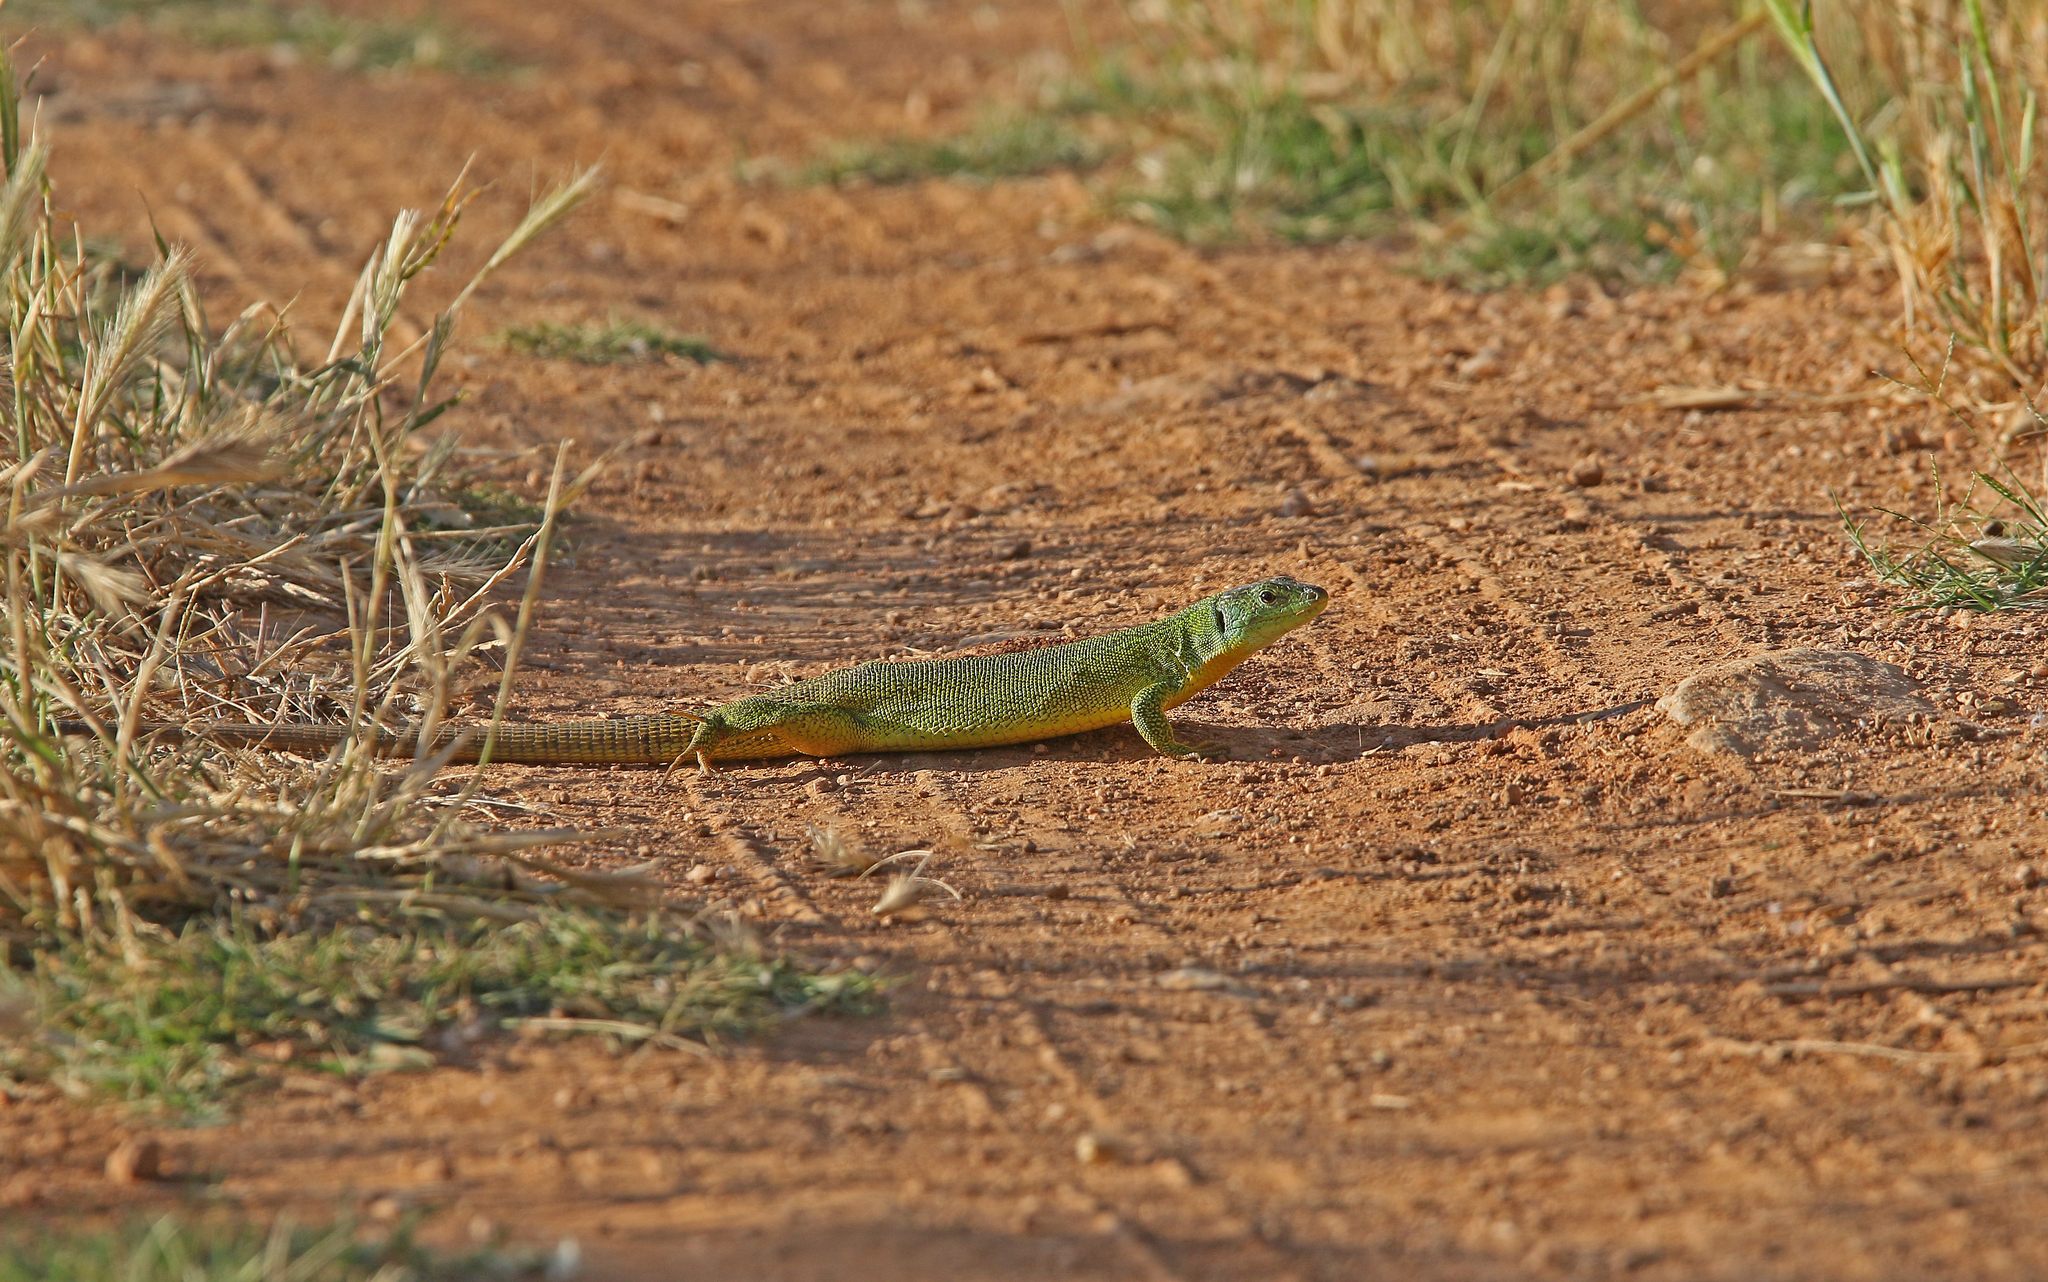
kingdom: Animalia
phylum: Chordata
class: Squamata
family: Lacertidae
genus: Lacerta
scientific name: Lacerta trilineata
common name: Balkan green lizard
